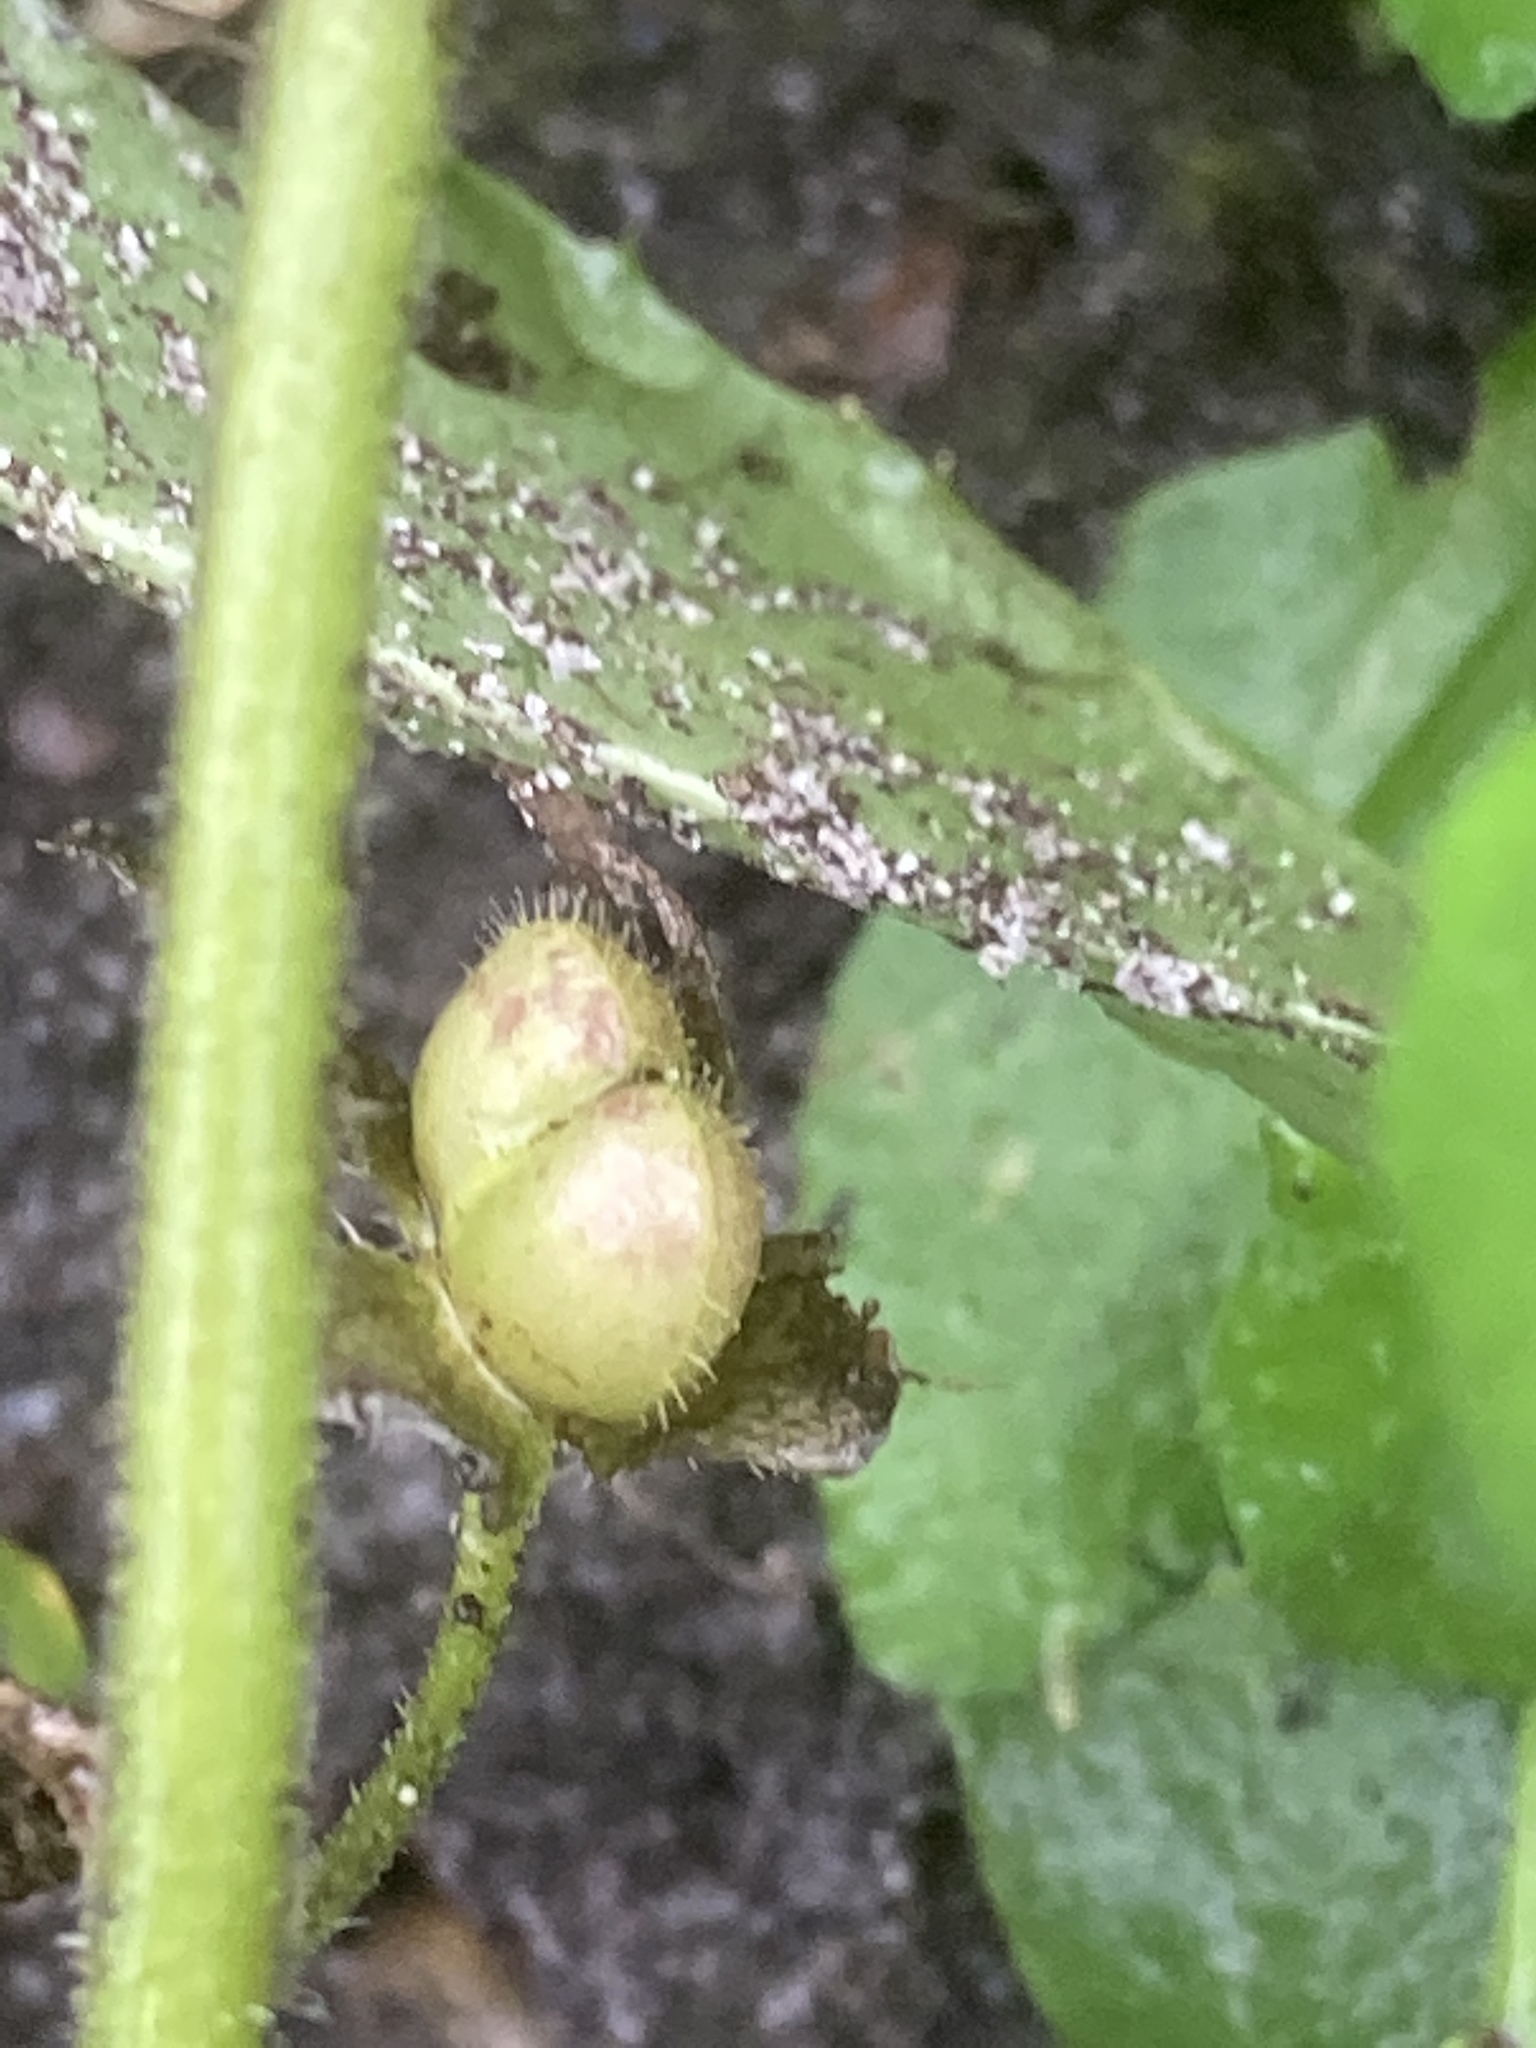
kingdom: Plantae
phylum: Tracheophyta
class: Magnoliopsida
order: Lamiales
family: Plantaginaceae
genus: Veronica
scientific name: Veronica agrestis
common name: Green field-speedwell
